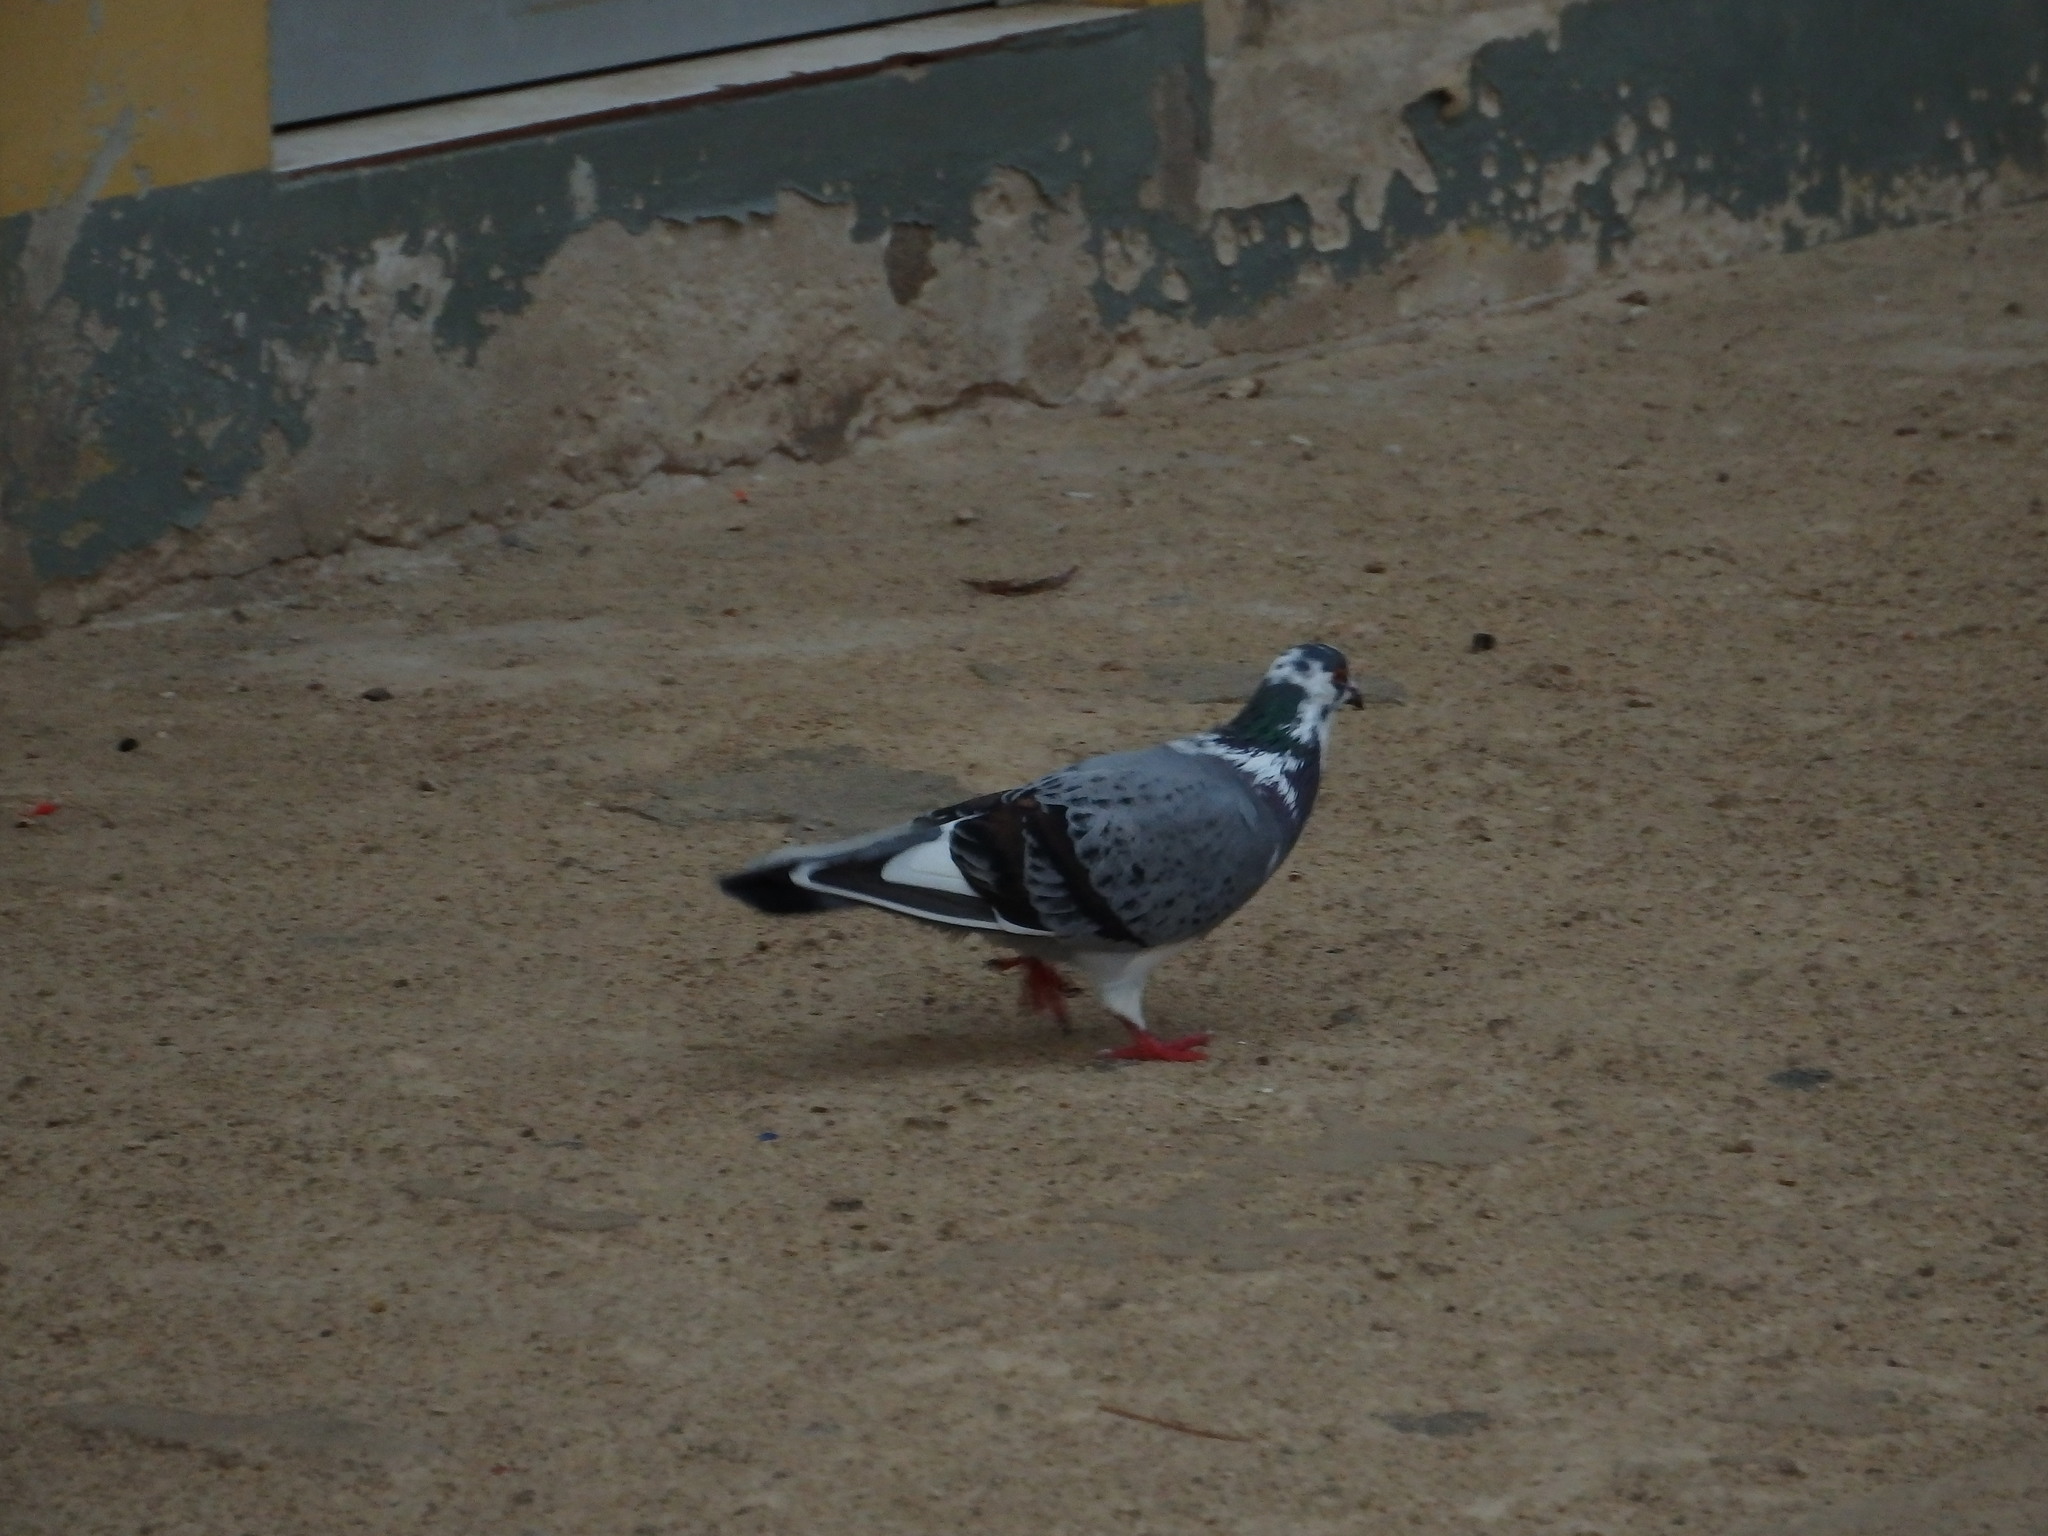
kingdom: Animalia
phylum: Chordata
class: Aves
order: Columbiformes
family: Columbidae
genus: Columba
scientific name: Columba livia
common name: Rock pigeon
